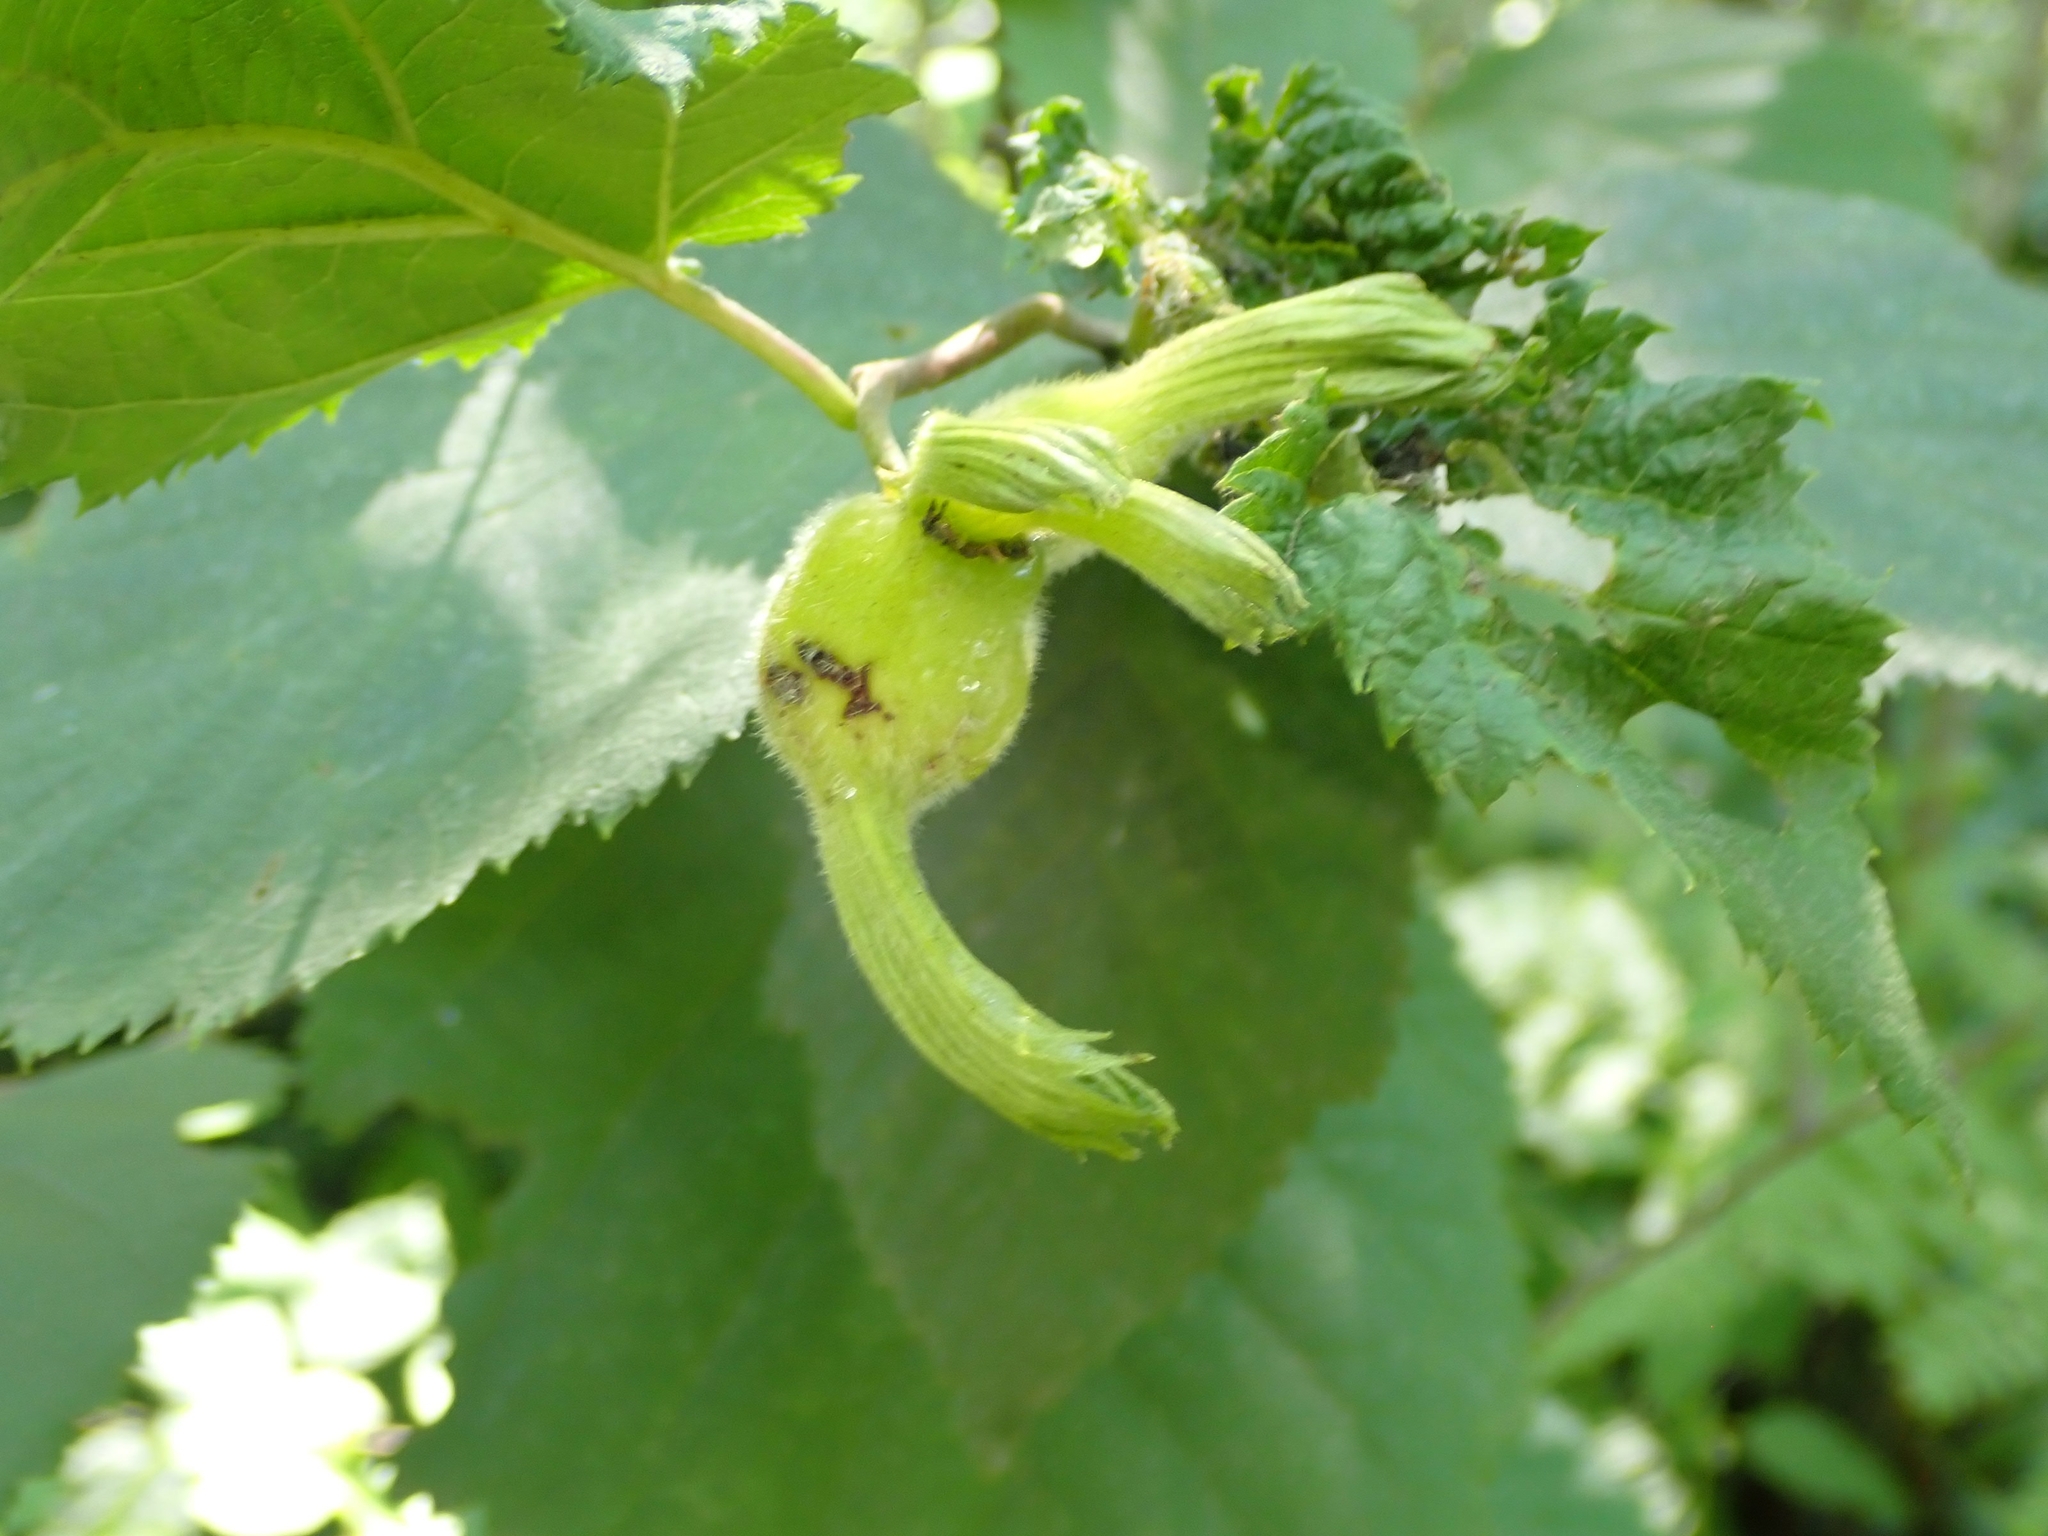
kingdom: Plantae
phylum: Tracheophyta
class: Magnoliopsida
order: Fagales
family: Betulaceae
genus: Corylus
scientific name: Corylus cornuta
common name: Beaked hazel
